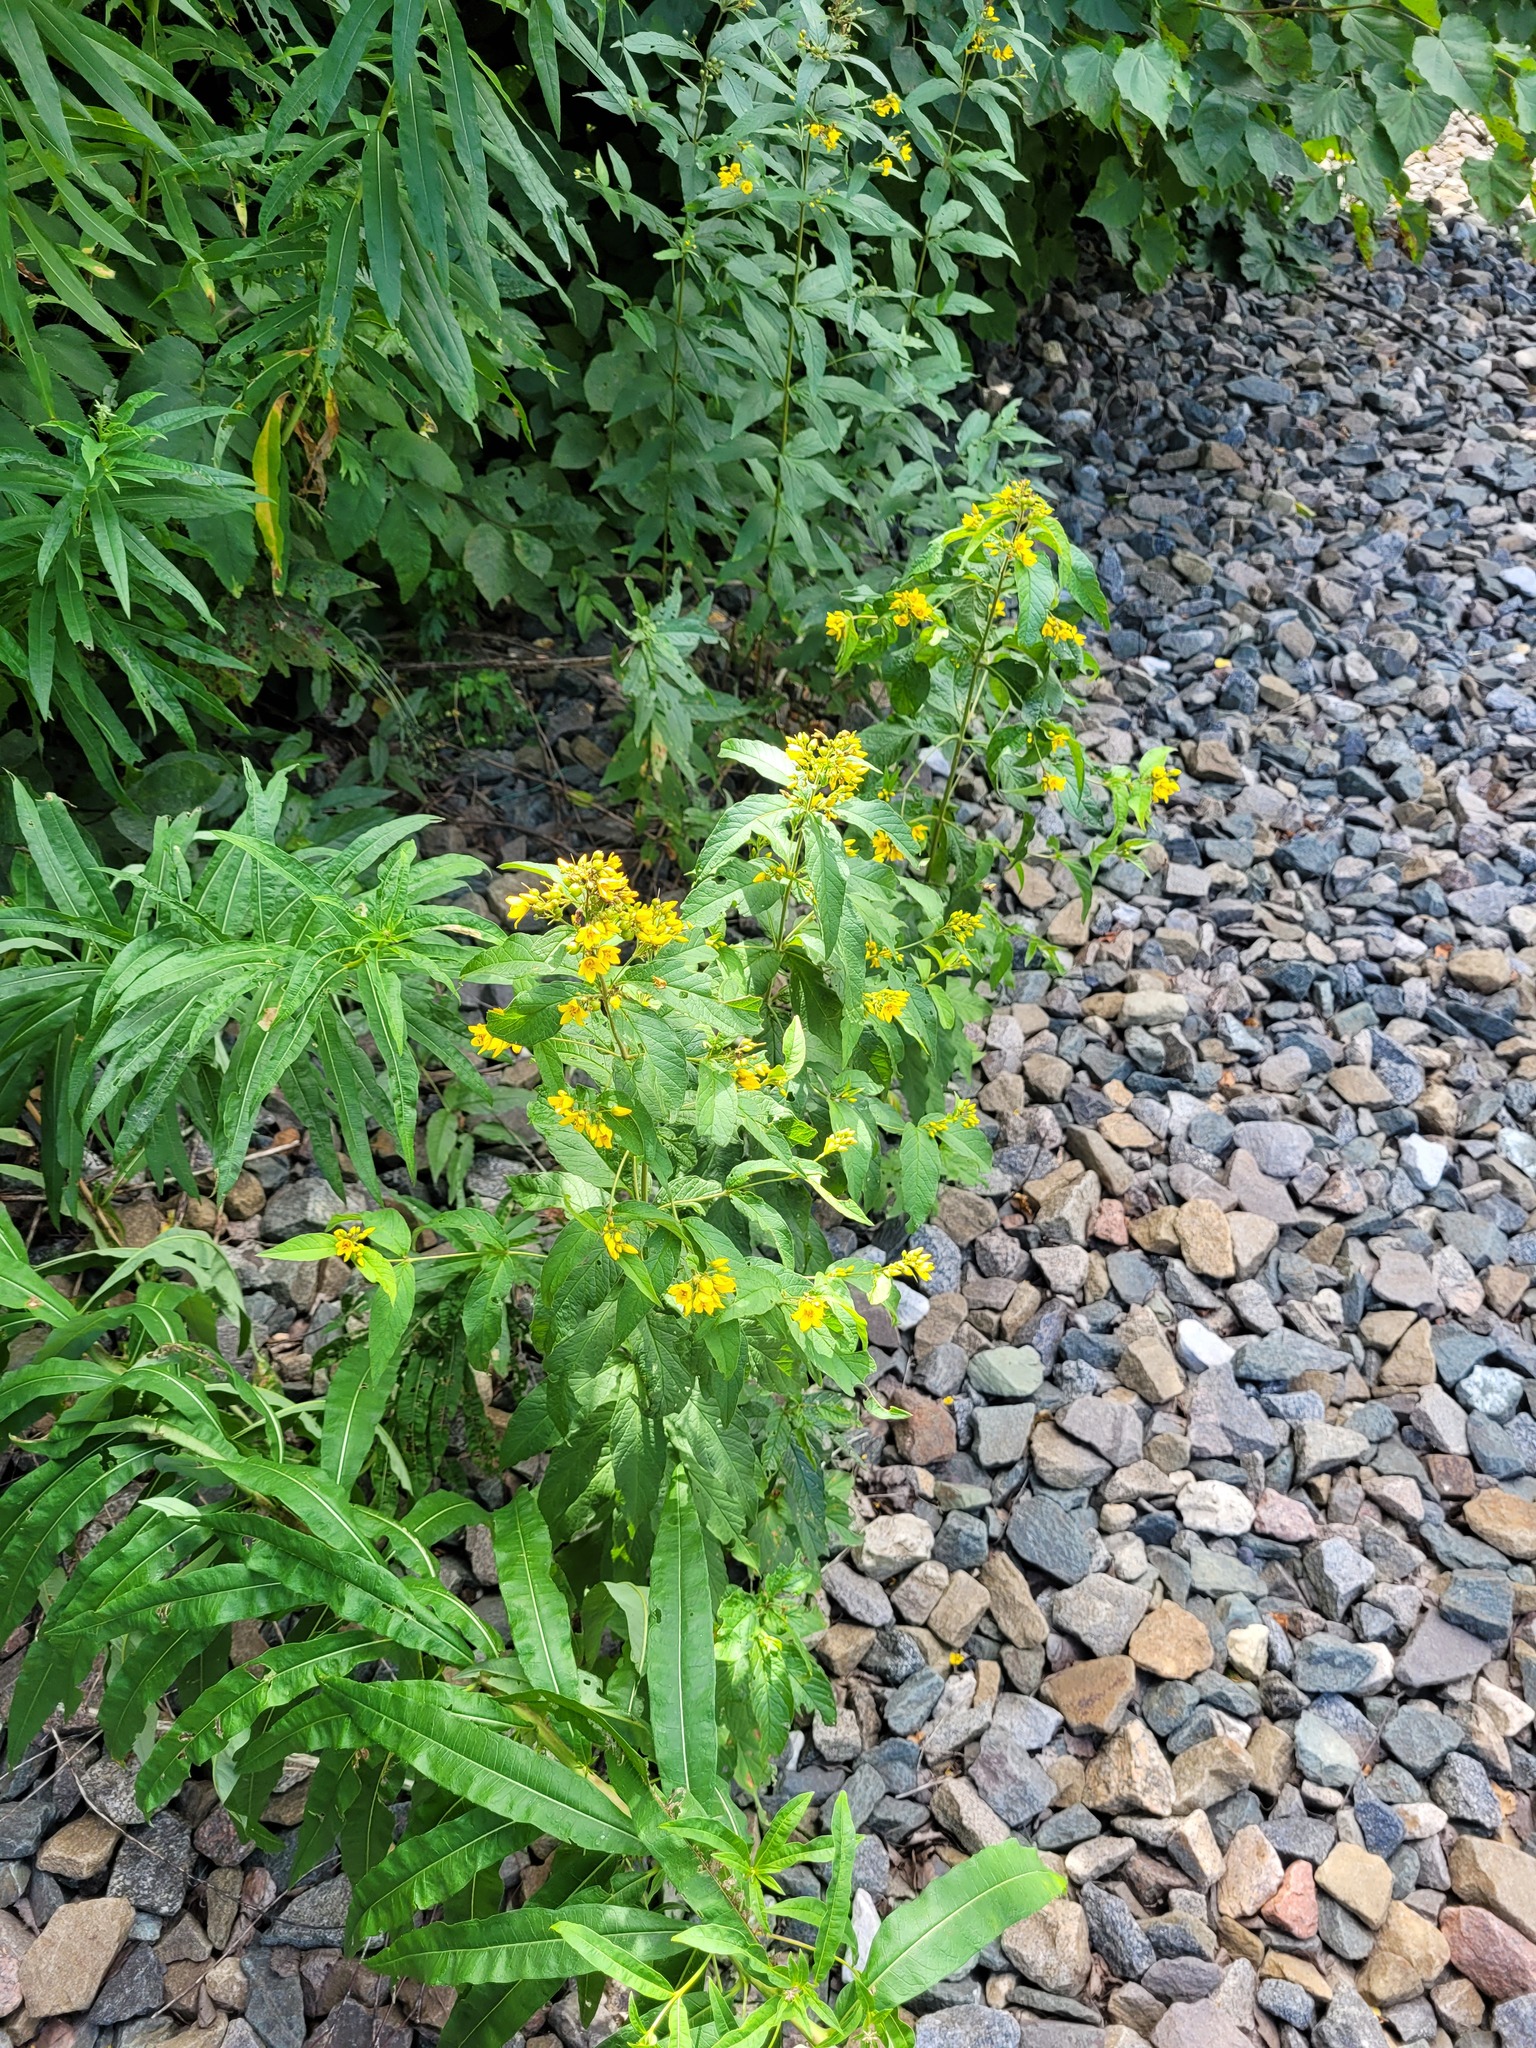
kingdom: Plantae
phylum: Tracheophyta
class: Magnoliopsida
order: Ericales
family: Primulaceae
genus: Lysimachia
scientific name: Lysimachia vulgaris
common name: Yellow loosestrife
